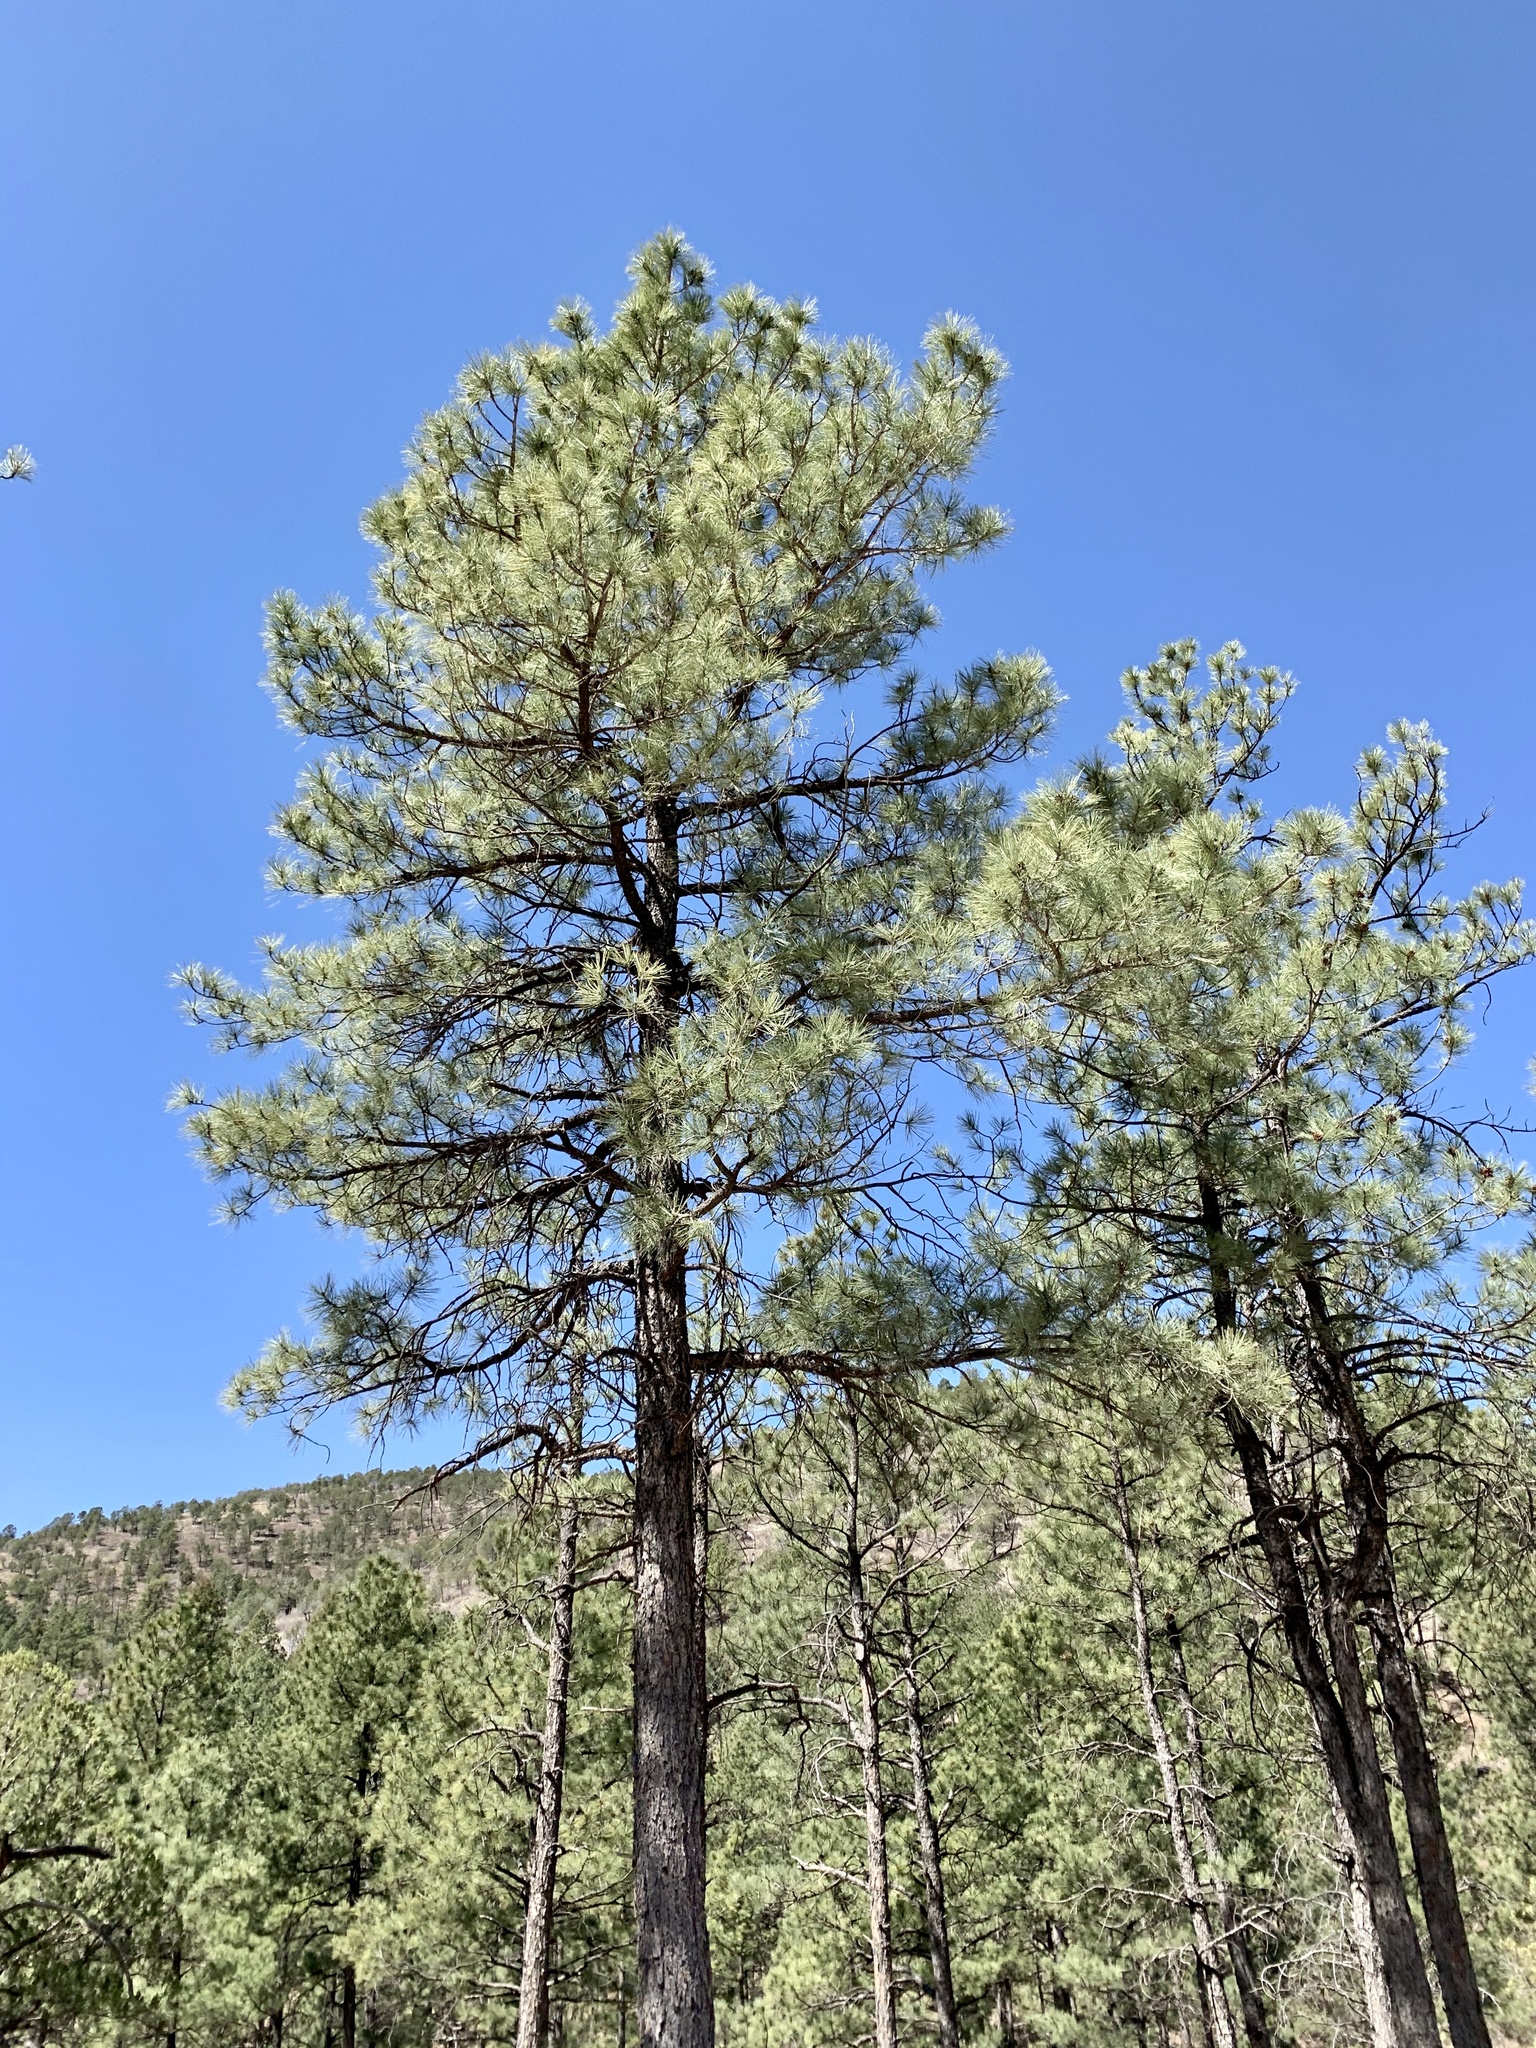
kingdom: Plantae
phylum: Tracheophyta
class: Pinopsida
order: Pinales
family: Pinaceae
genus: Pinus
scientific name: Pinus ponderosa
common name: Western yellow-pine
